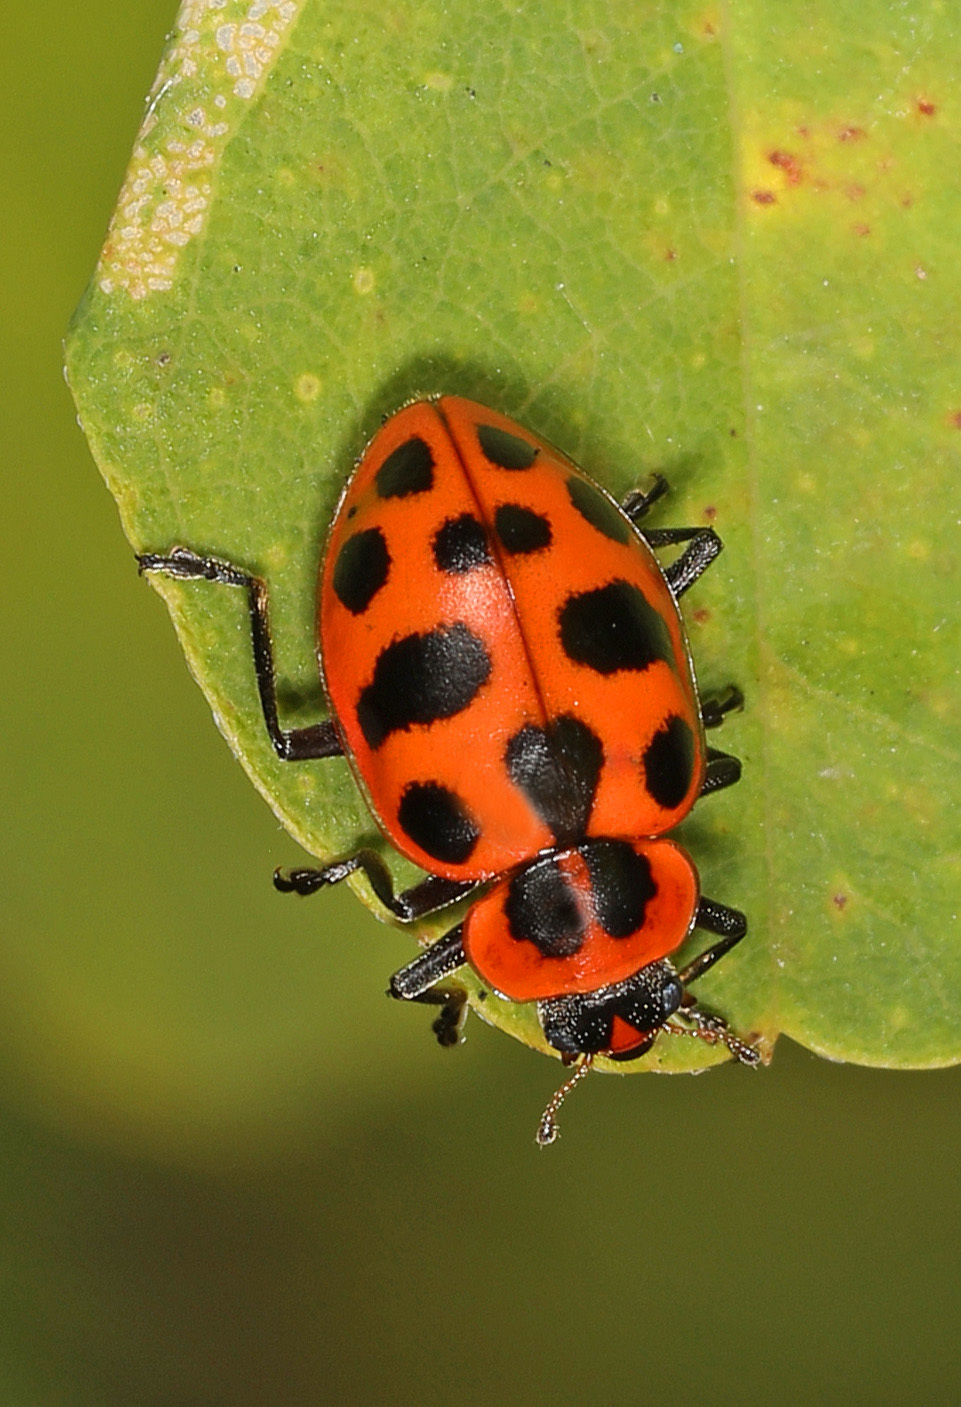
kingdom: Animalia
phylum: Arthropoda
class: Insecta
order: Coleoptera
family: Coccinellidae
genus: Coleomegilla
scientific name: Coleomegilla maculata
